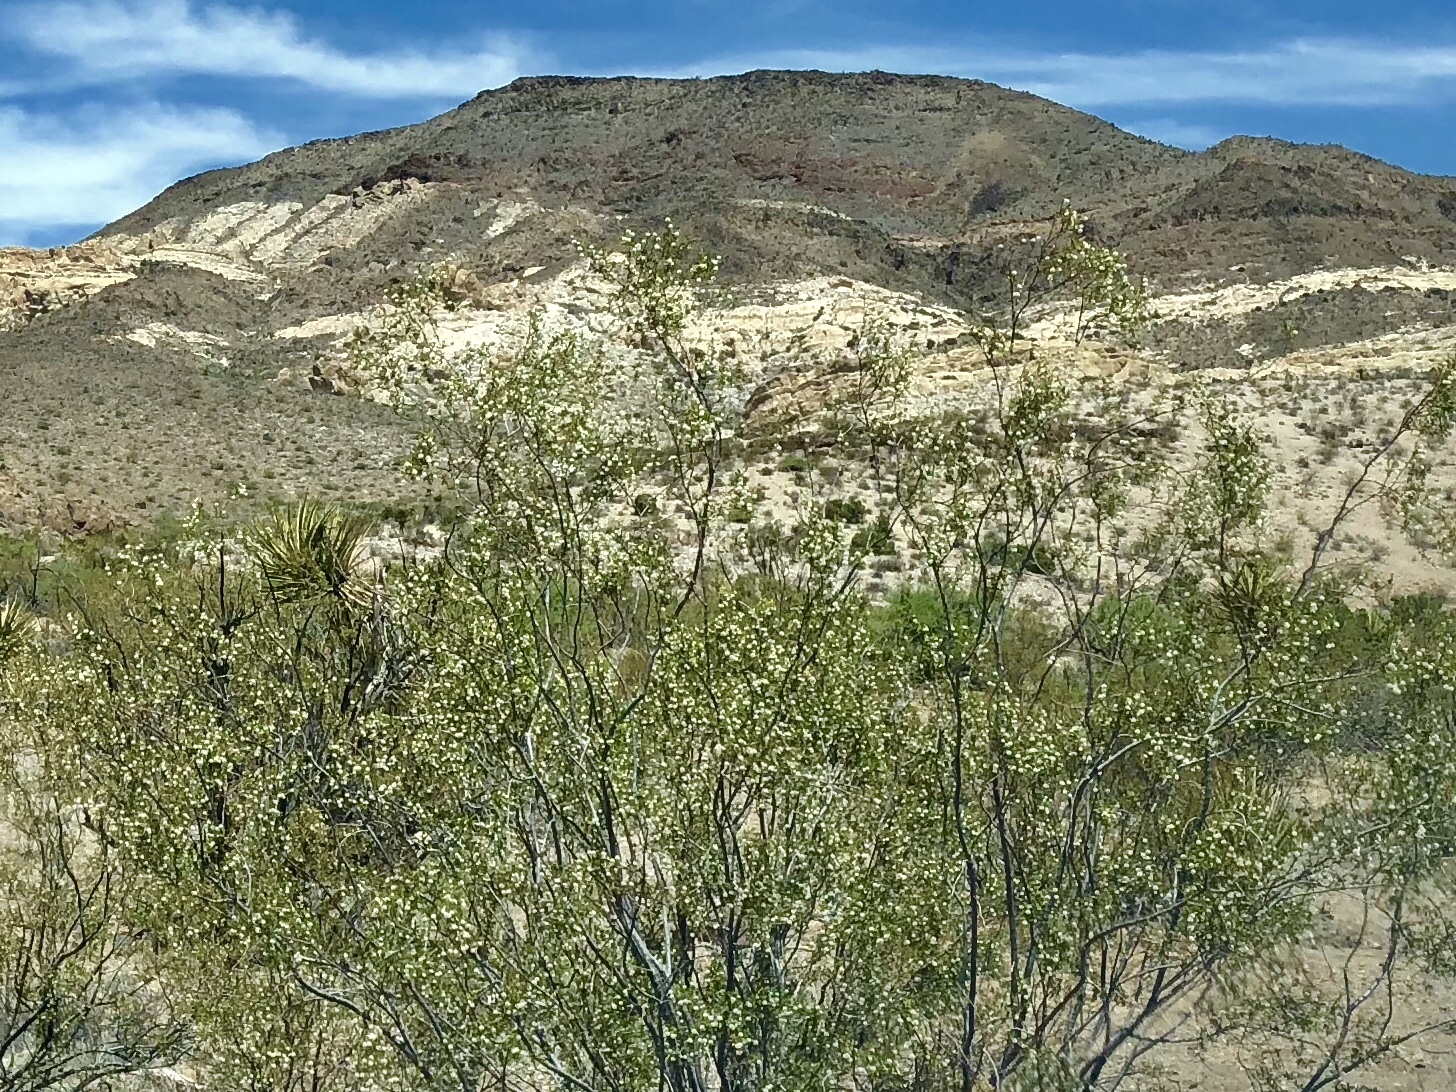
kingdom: Plantae
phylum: Tracheophyta
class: Magnoliopsida
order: Zygophyllales
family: Zygophyllaceae
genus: Larrea
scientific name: Larrea tridentata
